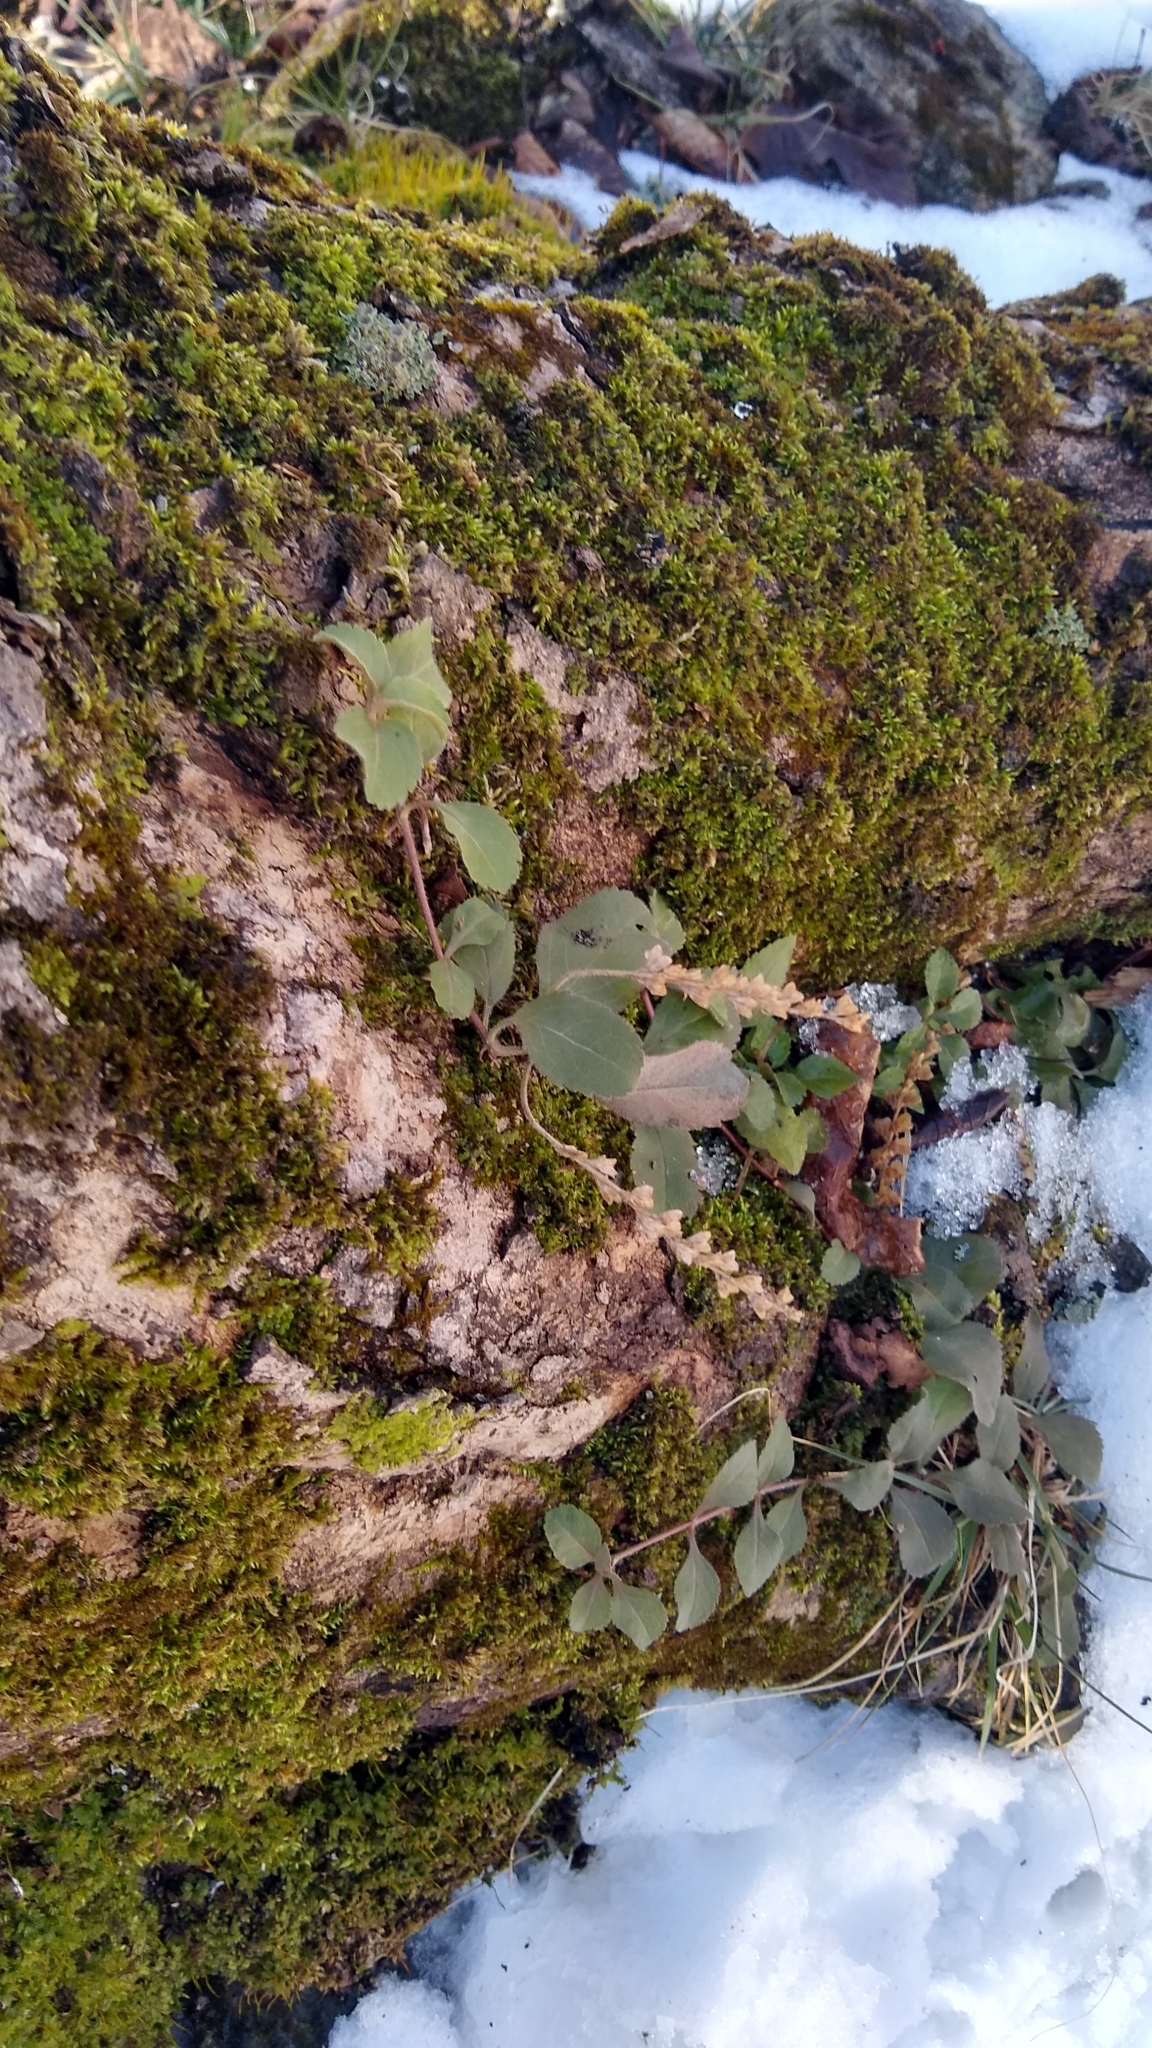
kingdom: Plantae
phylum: Tracheophyta
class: Magnoliopsida
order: Lamiales
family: Plantaginaceae
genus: Veronica
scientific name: Veronica officinalis
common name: Common speedwell
